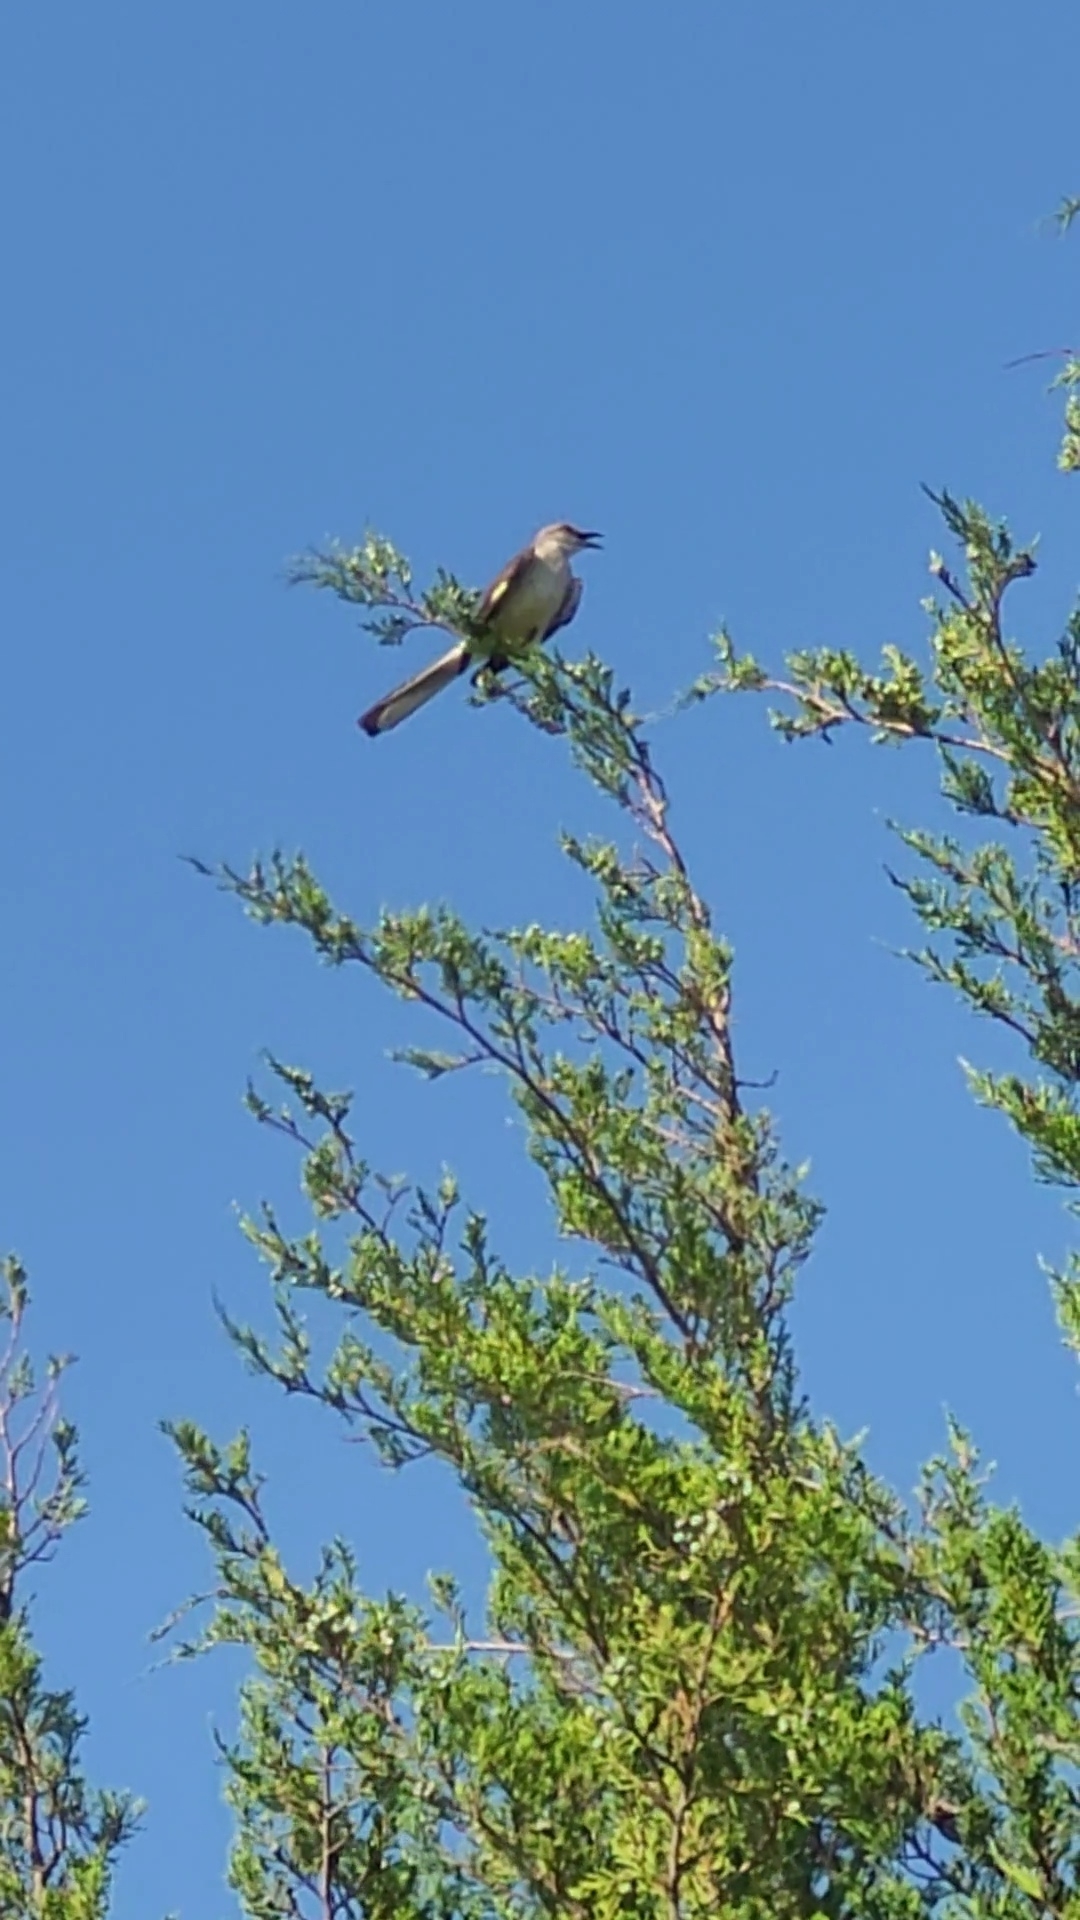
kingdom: Animalia
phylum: Chordata
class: Aves
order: Passeriformes
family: Mimidae
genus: Mimus
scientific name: Mimus polyglottos
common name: Northern mockingbird
